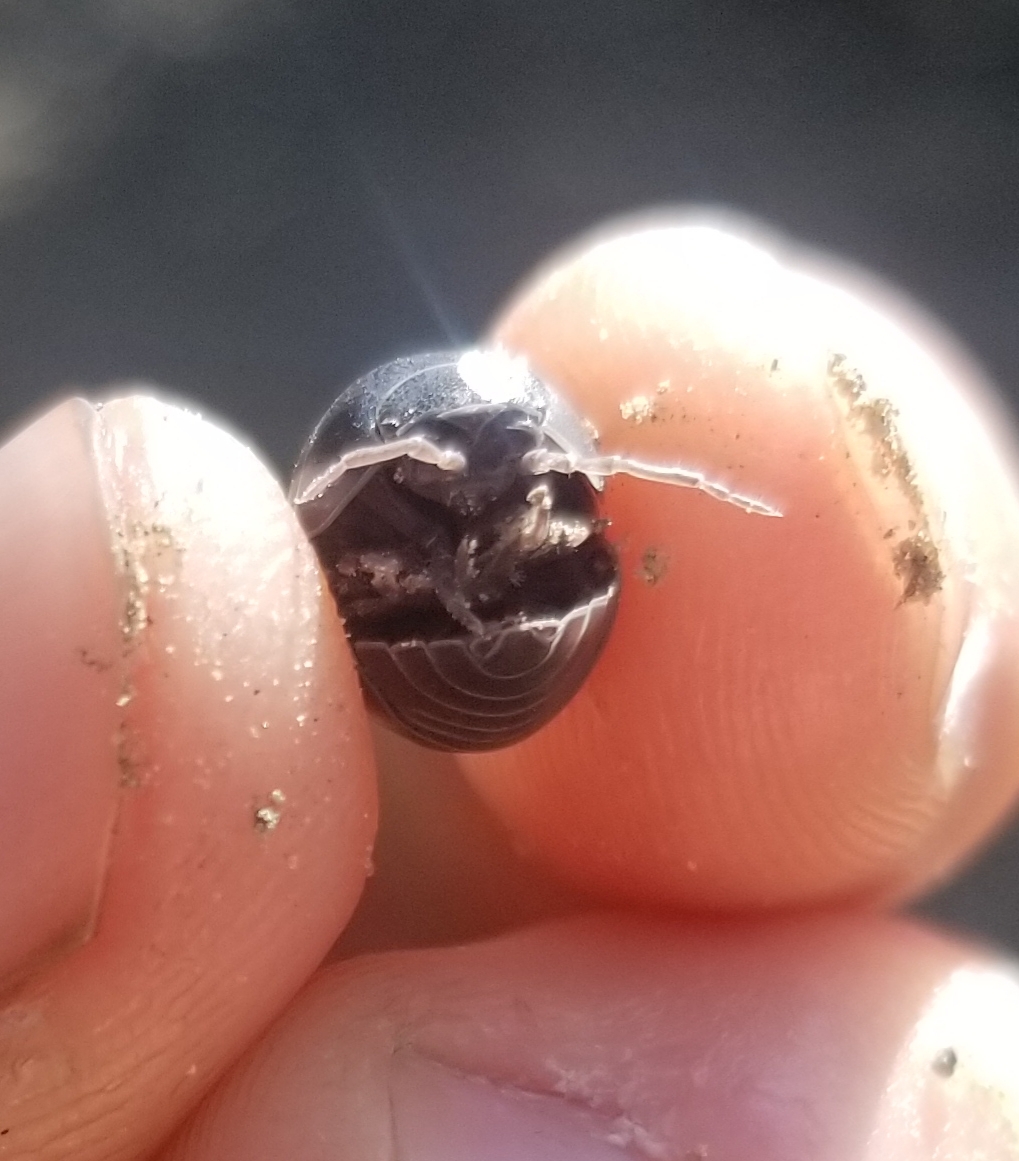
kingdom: Animalia
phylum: Arthropoda
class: Malacostraca
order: Isopoda
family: Armadillidiidae
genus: Armadillidium
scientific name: Armadillidium vulgare
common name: Common pill woodlouse
